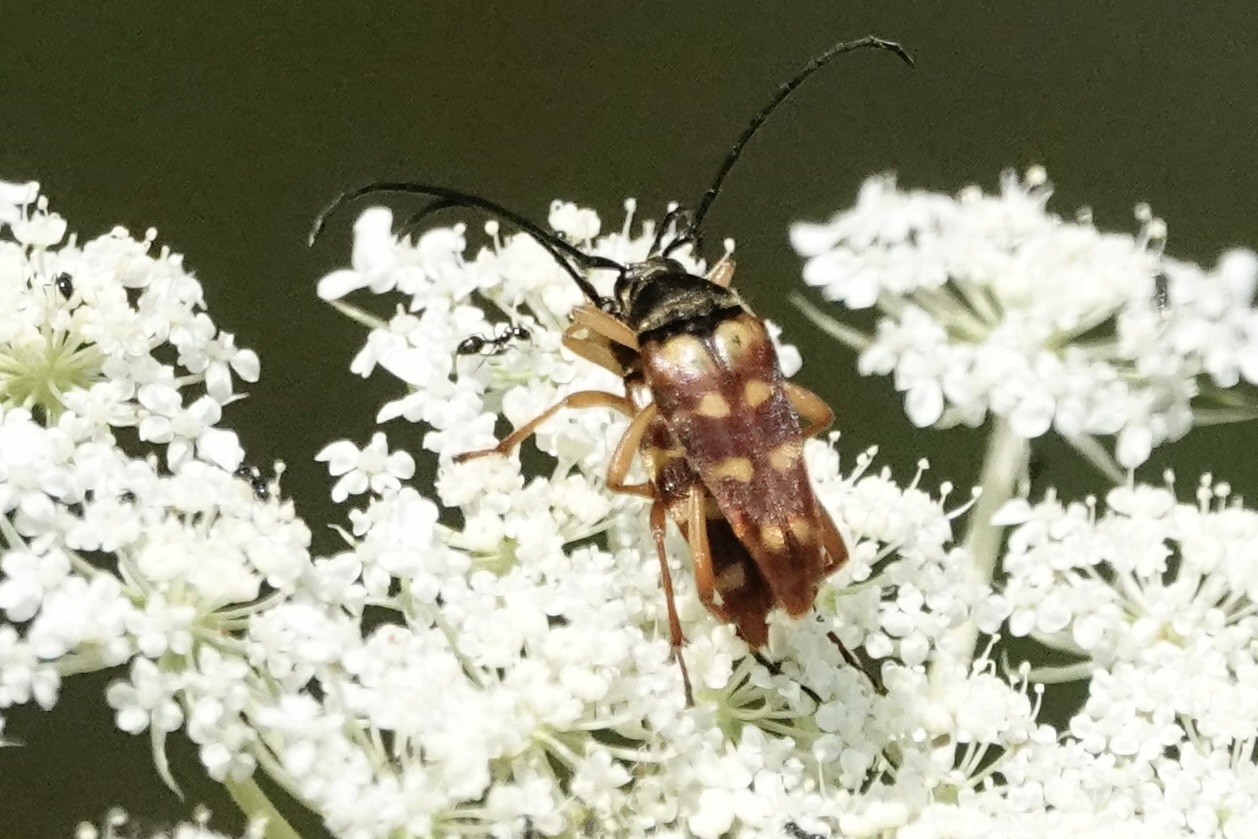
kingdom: Animalia
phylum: Arthropoda
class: Insecta
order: Coleoptera
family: Cerambycidae
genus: Typocerus
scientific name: Typocerus velutinus
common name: Banded longhorn beetle
